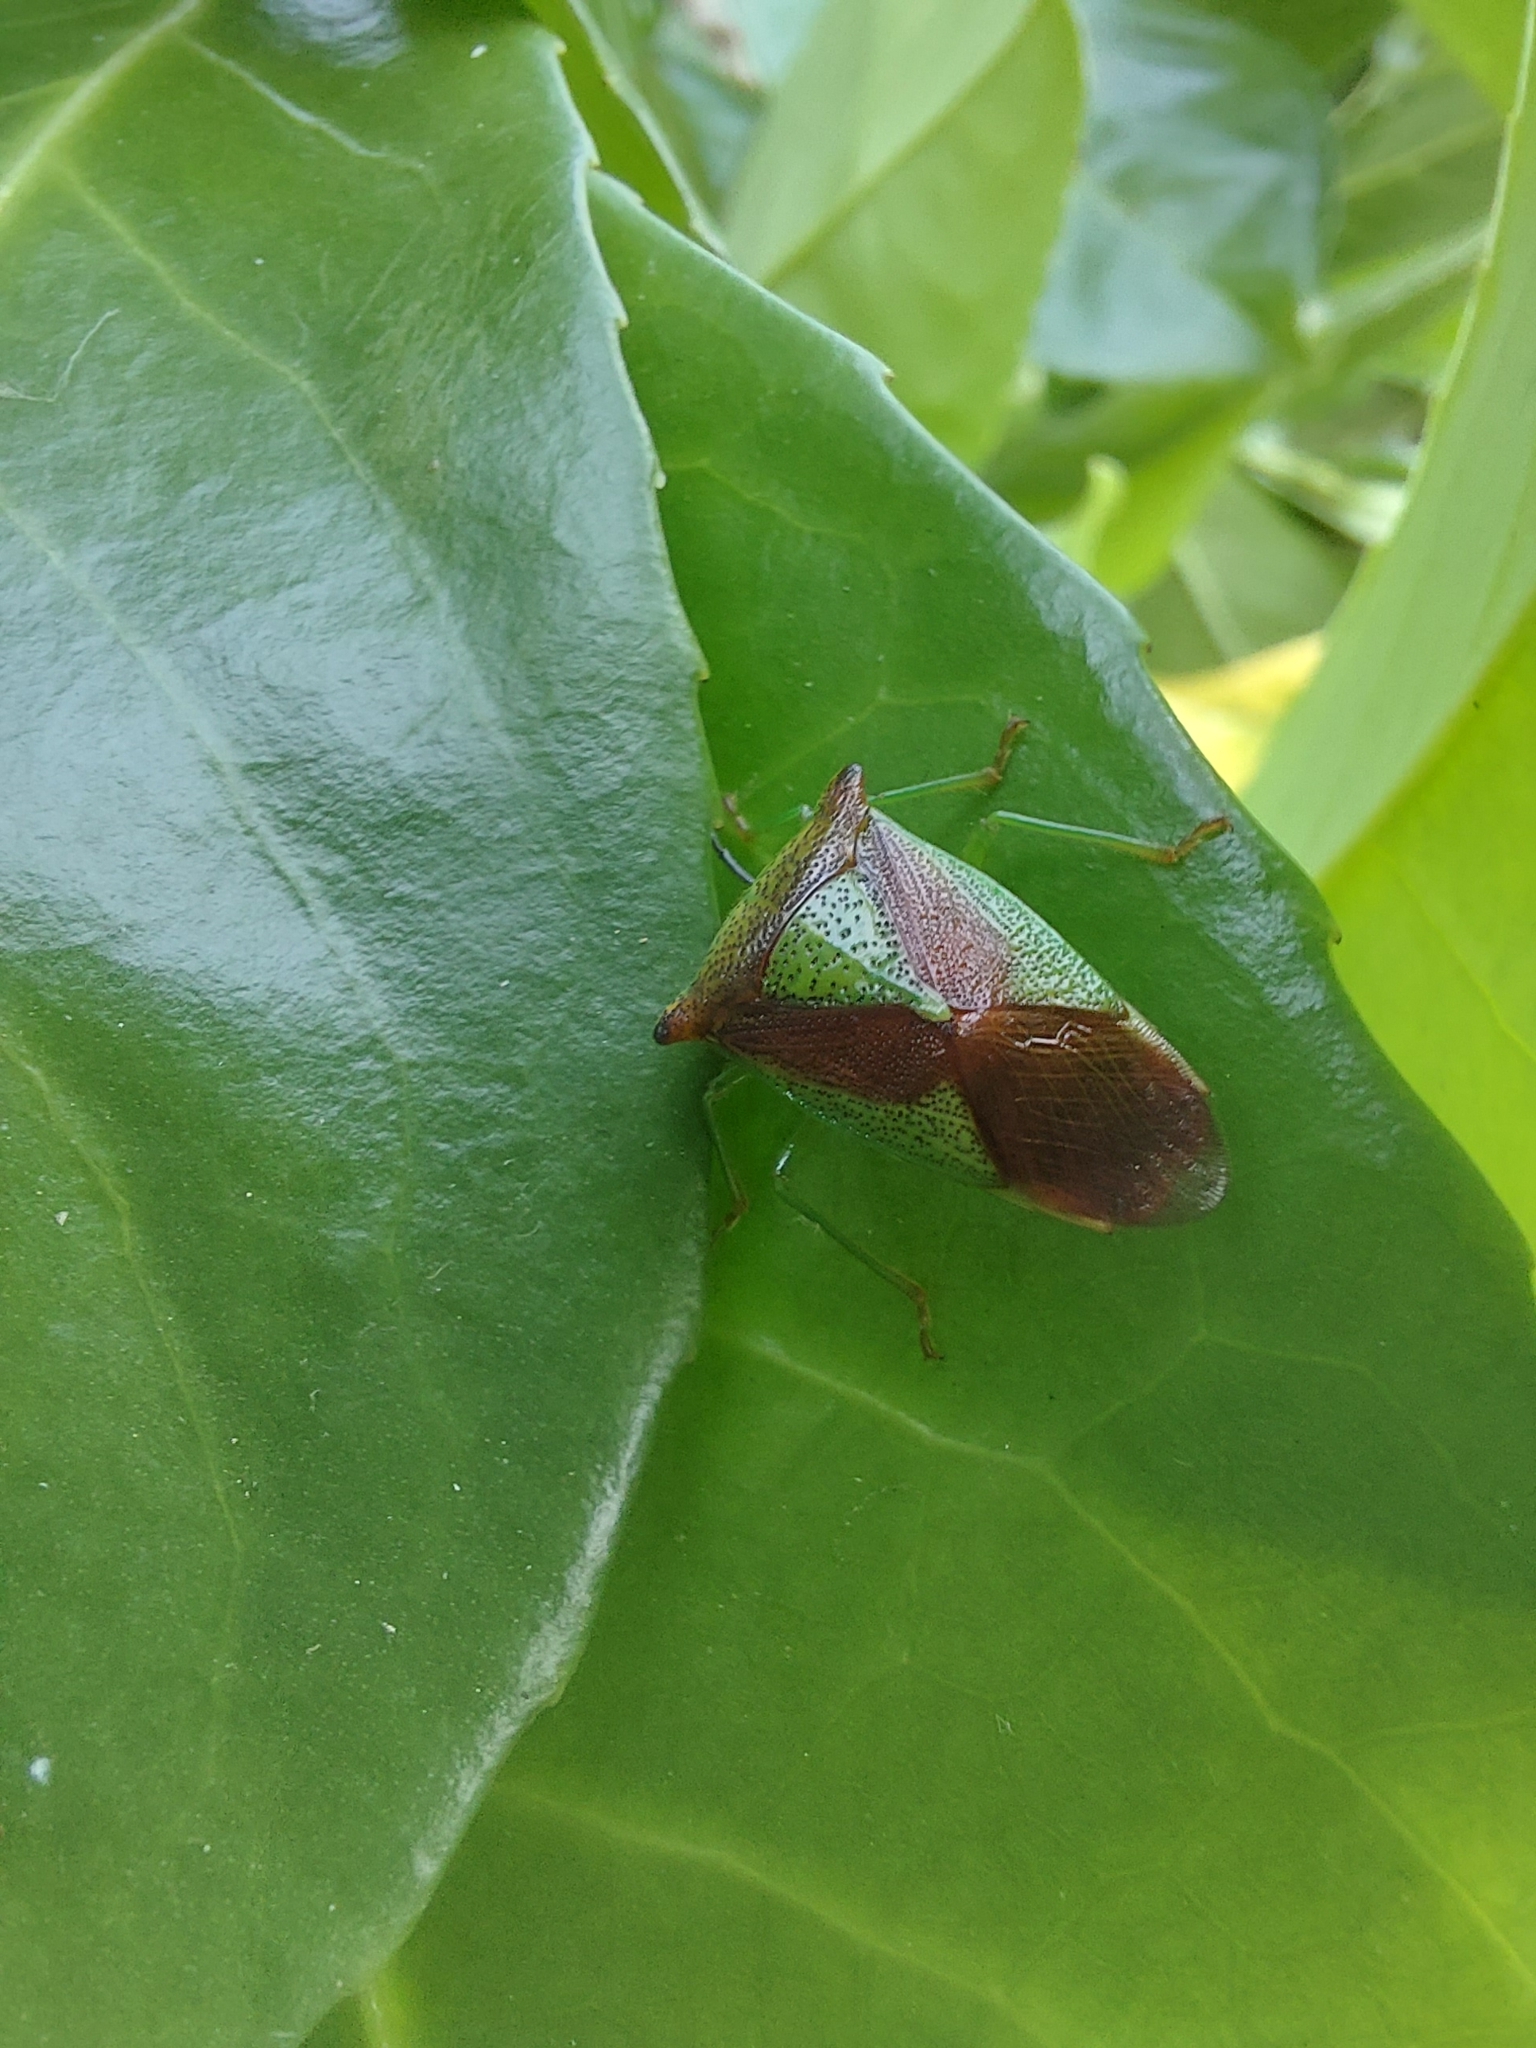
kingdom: Animalia
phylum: Arthropoda
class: Insecta
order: Hemiptera
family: Acanthosomatidae
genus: Acanthosoma
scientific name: Acanthosoma haemorrhoidale
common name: Hawthorn shieldbug
